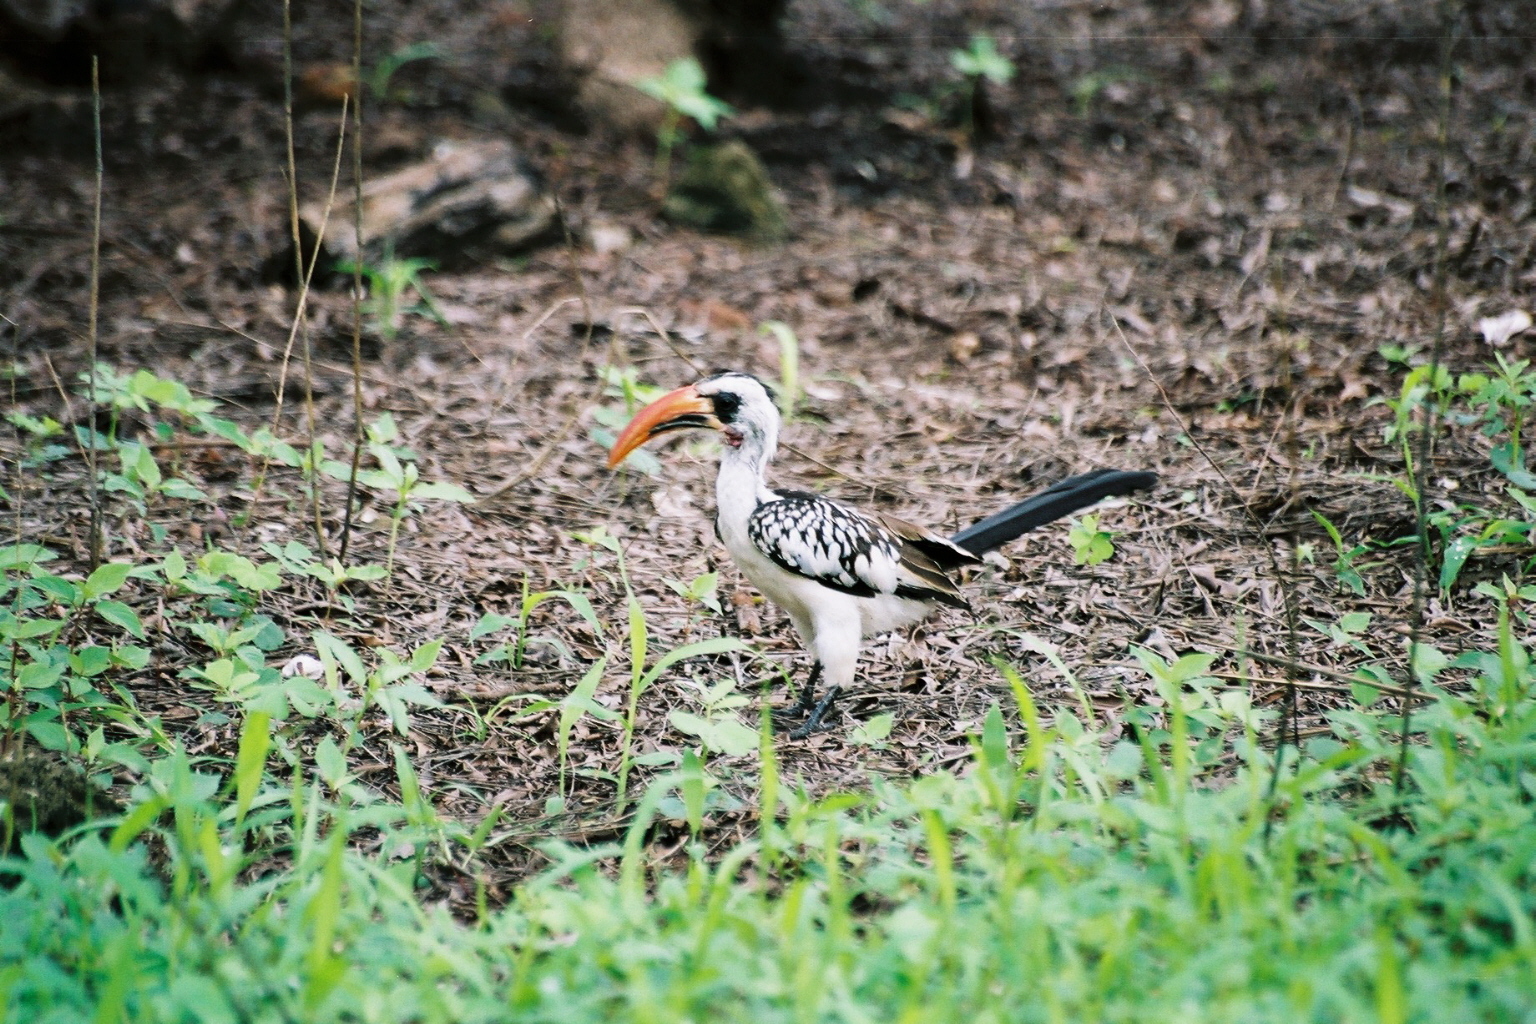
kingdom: Animalia
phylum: Chordata
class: Aves
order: Bucerotiformes
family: Bucerotidae
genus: Tockus
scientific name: Tockus kempi
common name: Western red-billed hornbill
